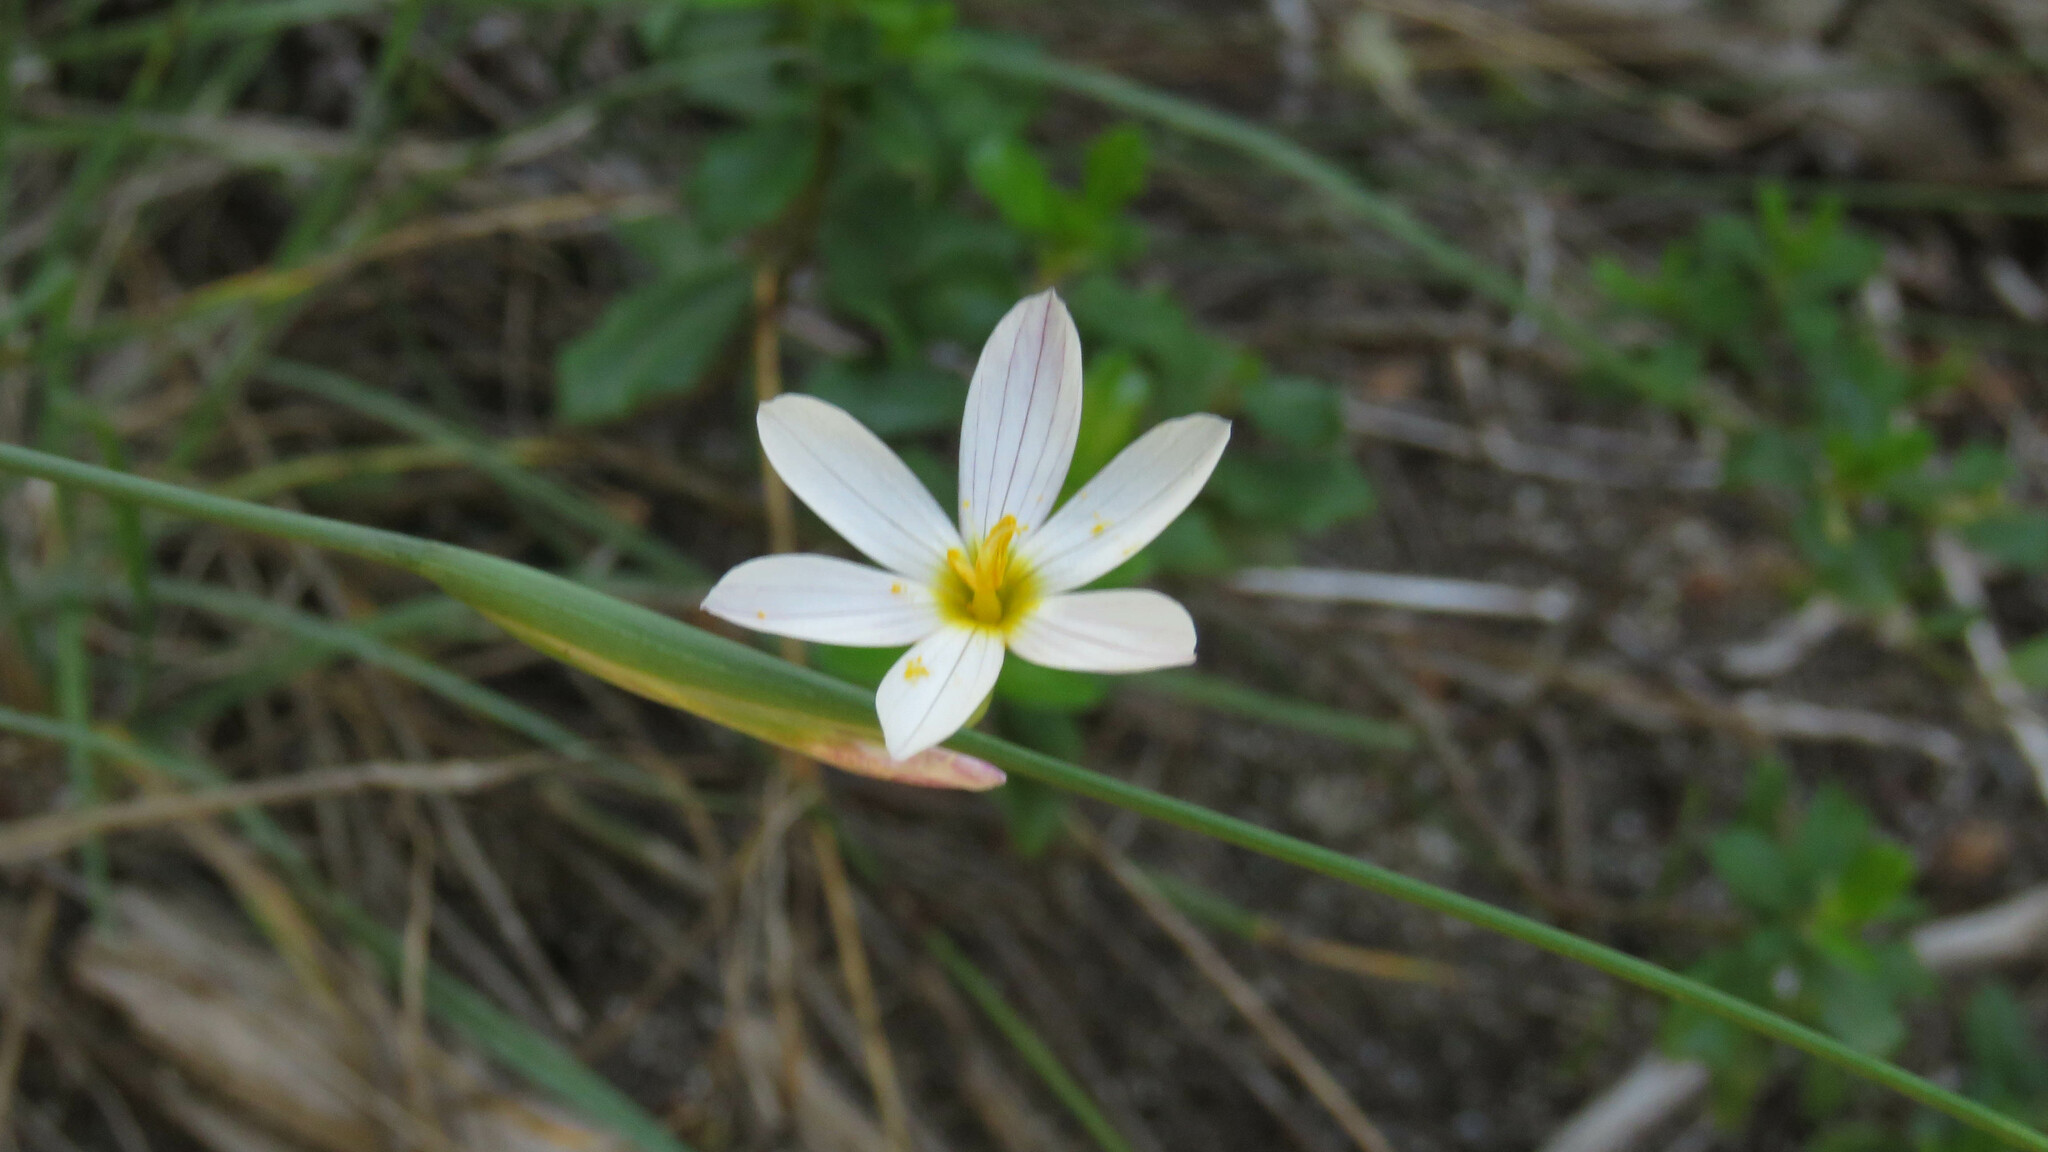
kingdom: Plantae
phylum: Tracheophyta
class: Liliopsida
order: Asparagales
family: Iridaceae
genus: Olsynium
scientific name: Olsynium junceum
